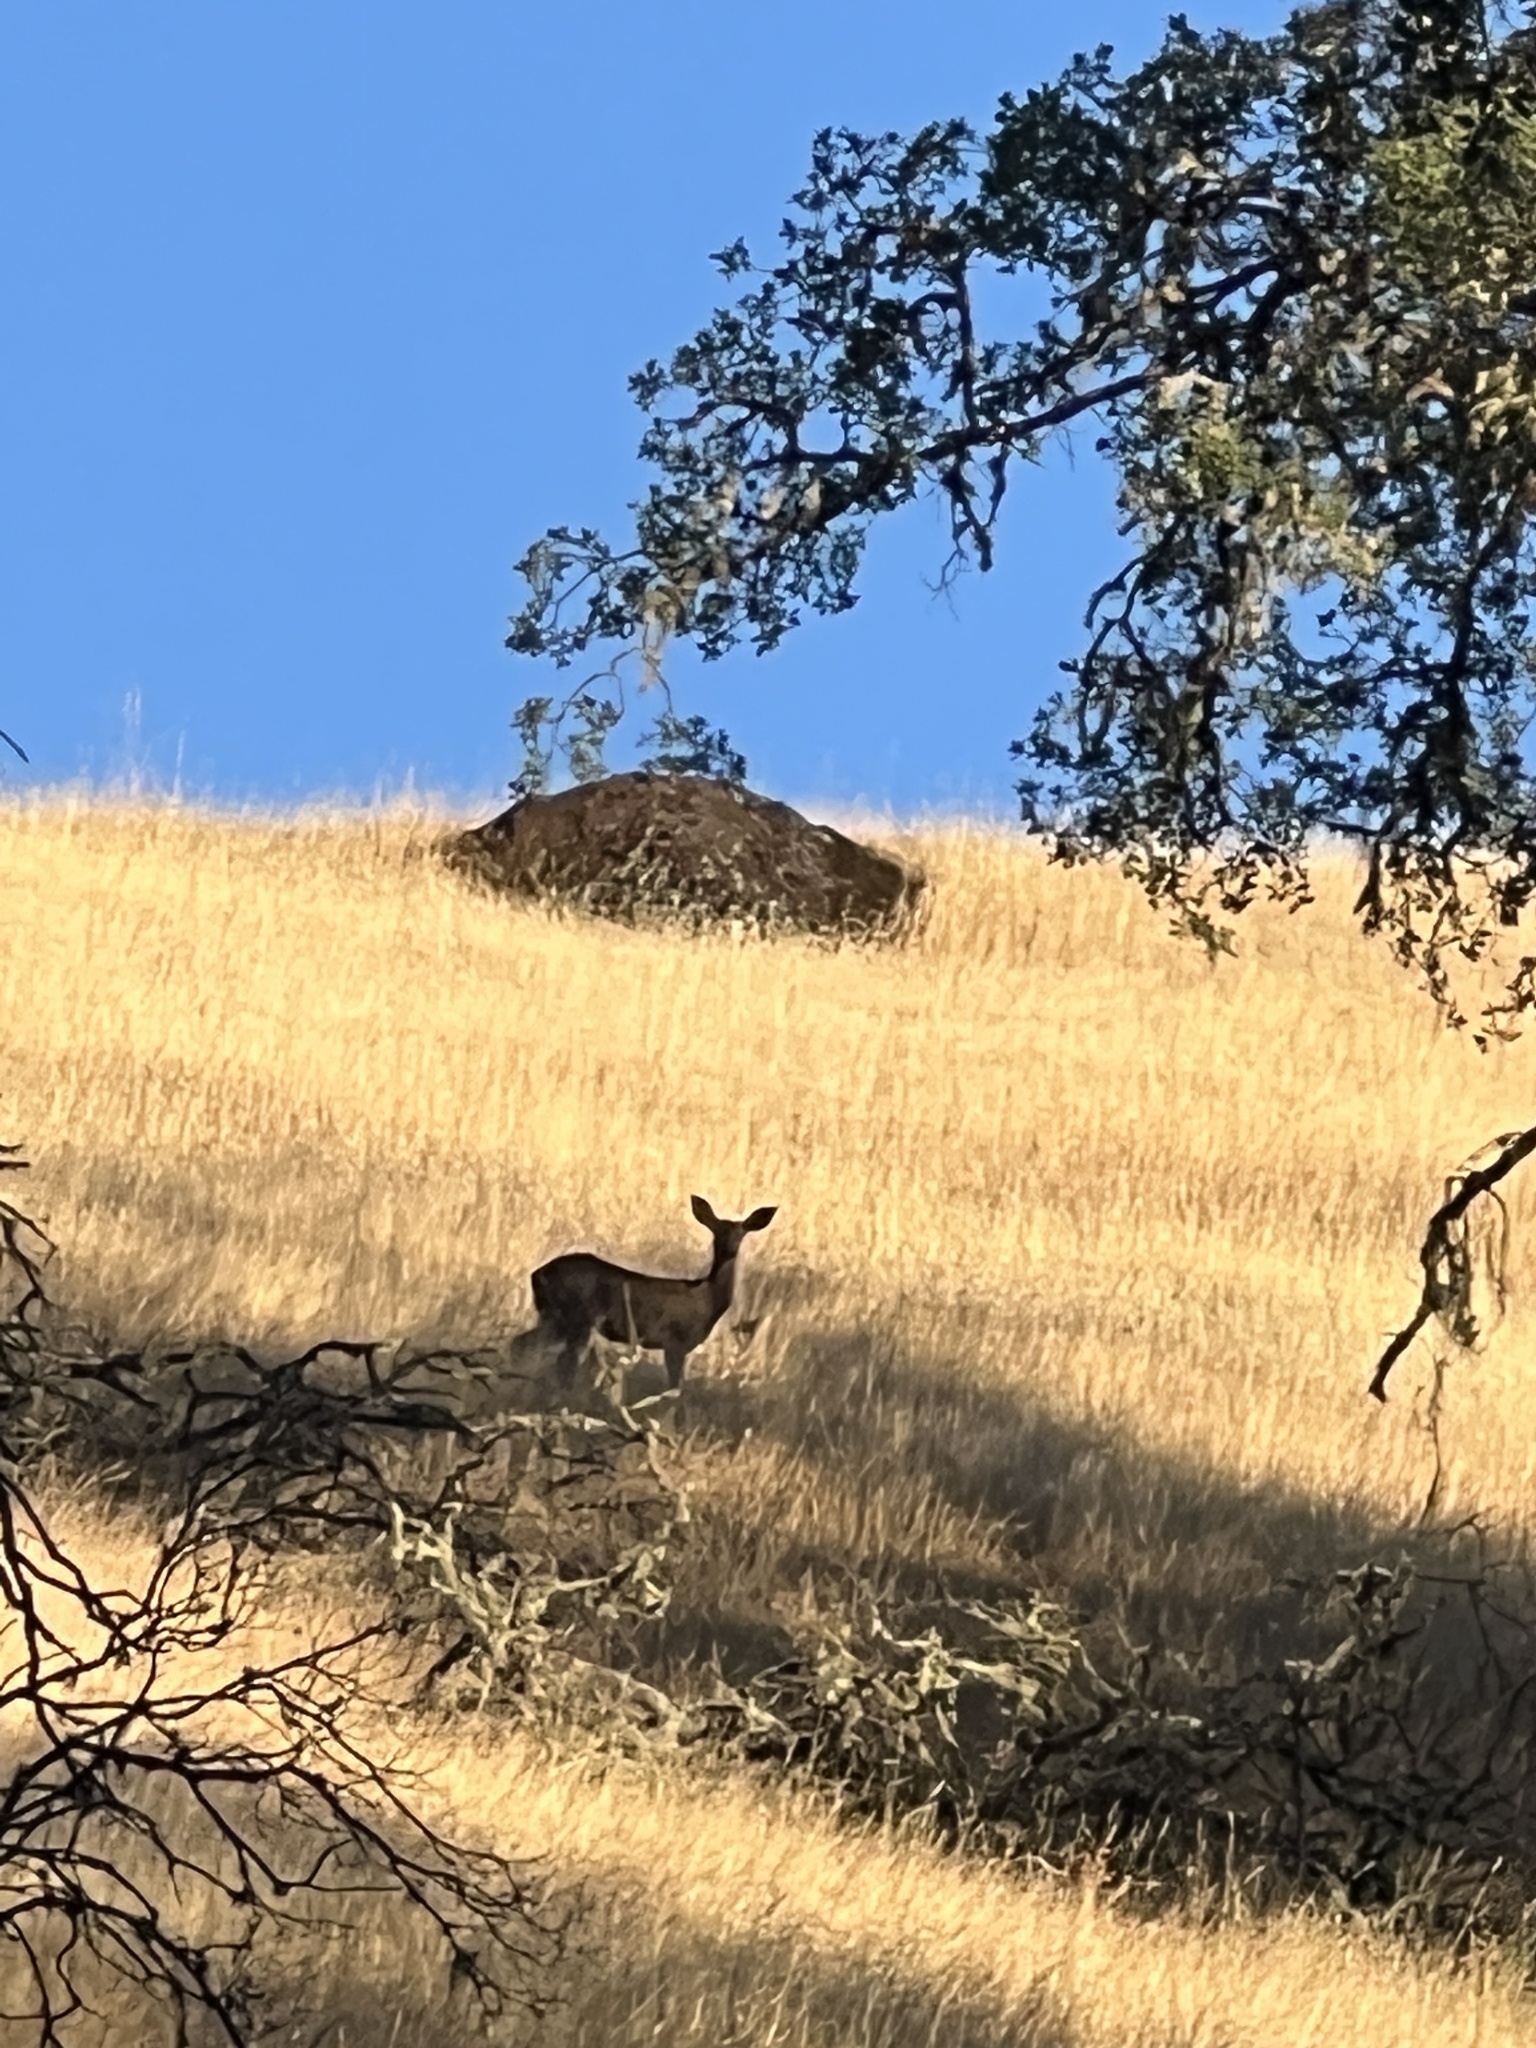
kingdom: Animalia
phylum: Chordata
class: Mammalia
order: Artiodactyla
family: Cervidae
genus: Odocoileus
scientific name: Odocoileus hemionus
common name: Mule deer
